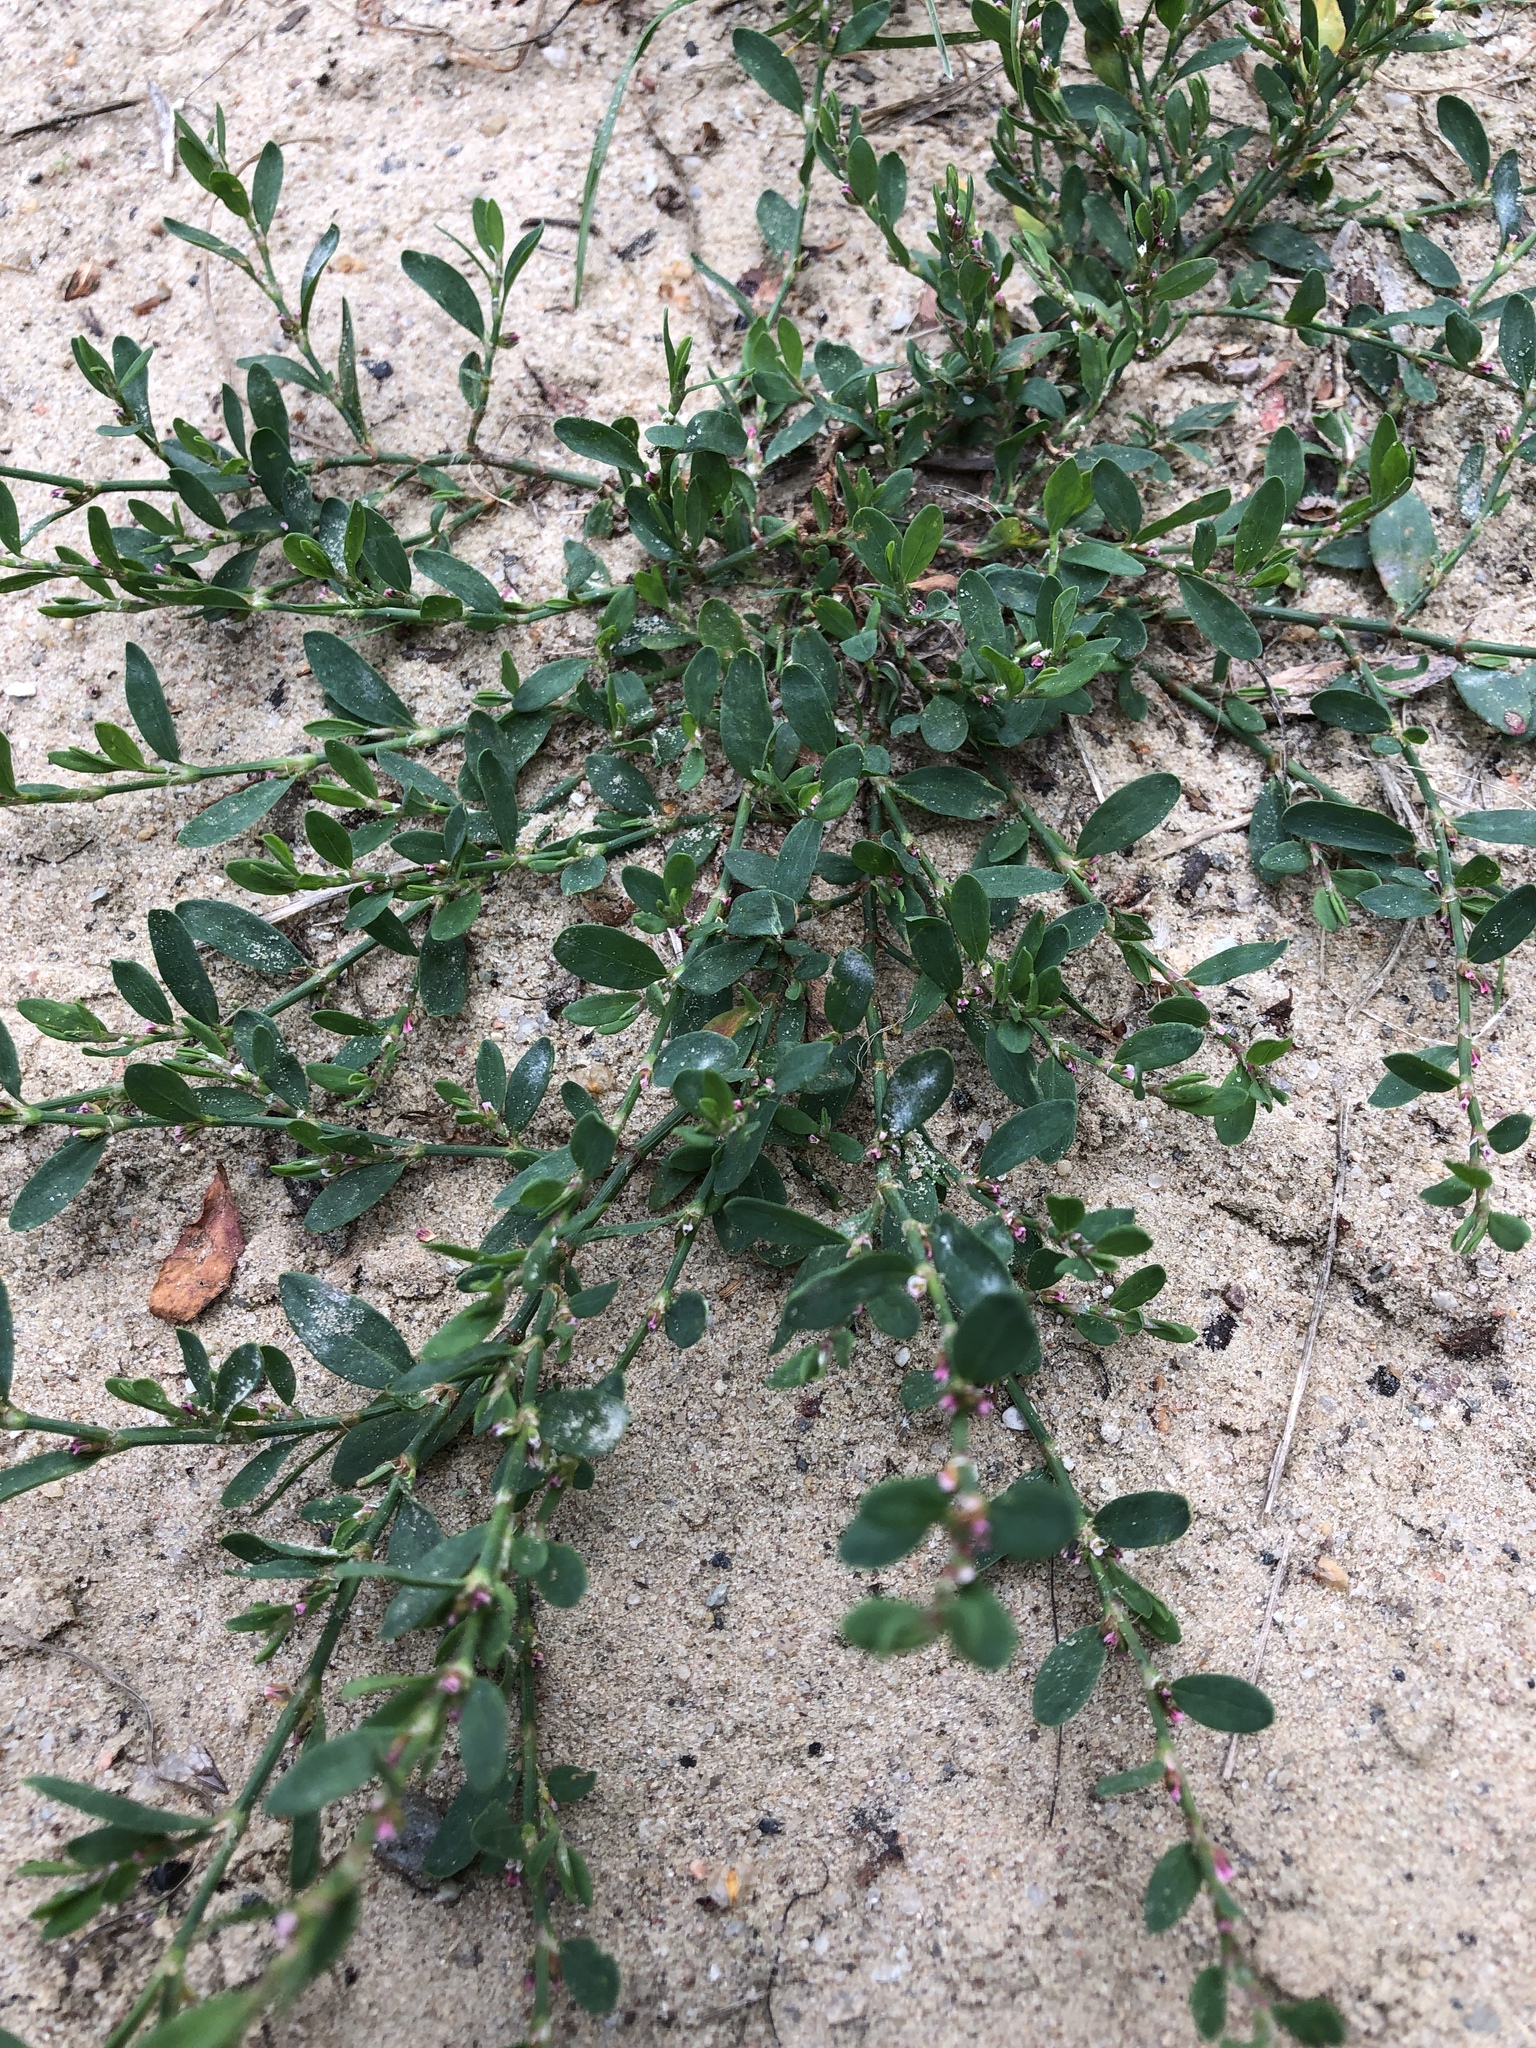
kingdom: Plantae
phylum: Tracheophyta
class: Magnoliopsida
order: Caryophyllales
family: Polygonaceae
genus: Polygonum
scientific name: Polygonum aviculare
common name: Prostrate knotweed
